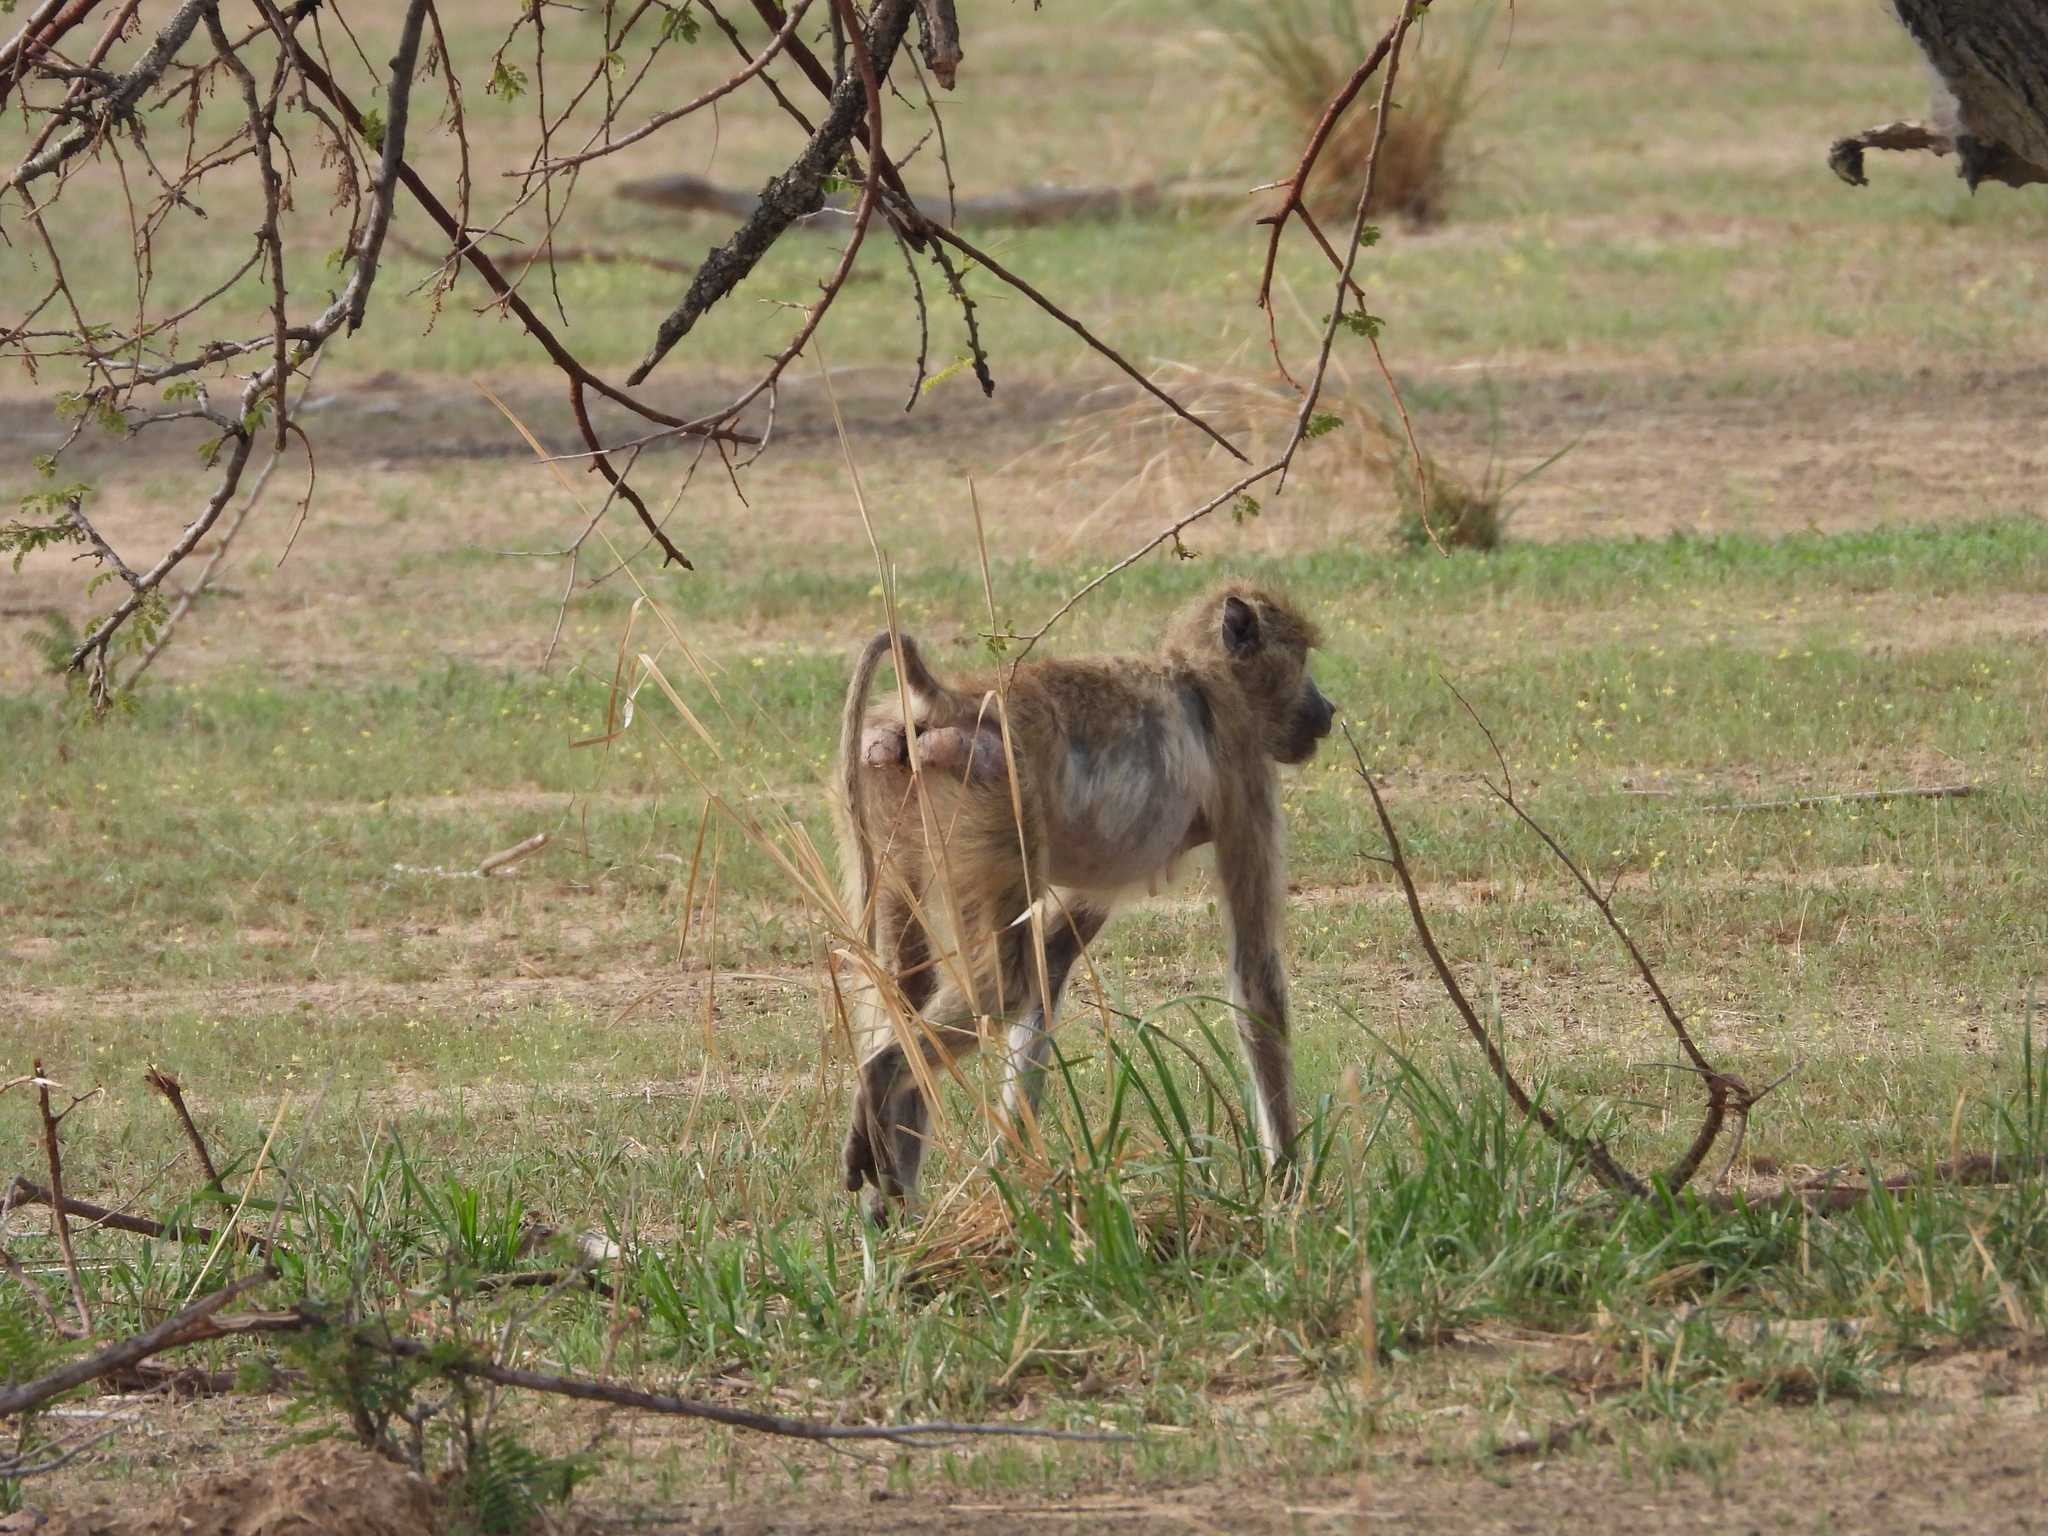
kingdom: Animalia
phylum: Chordata
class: Mammalia
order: Primates
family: Cercopithecidae
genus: Papio
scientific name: Papio kindae
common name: Kinda baboon
